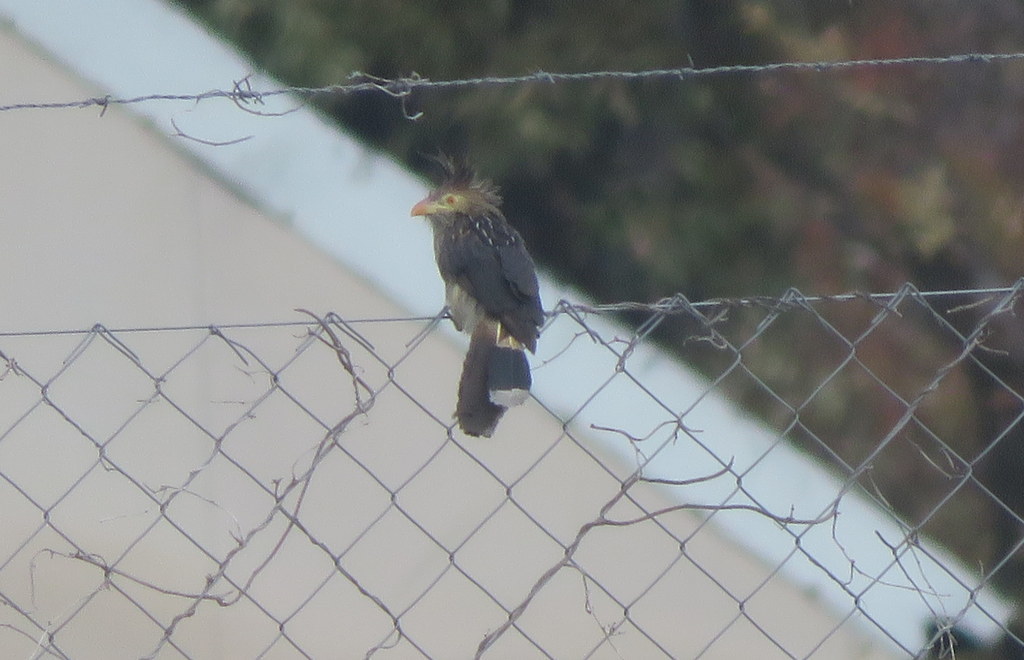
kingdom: Animalia
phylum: Chordata
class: Aves
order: Cuculiformes
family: Cuculidae
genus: Guira
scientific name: Guira guira
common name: Guira cuckoo
